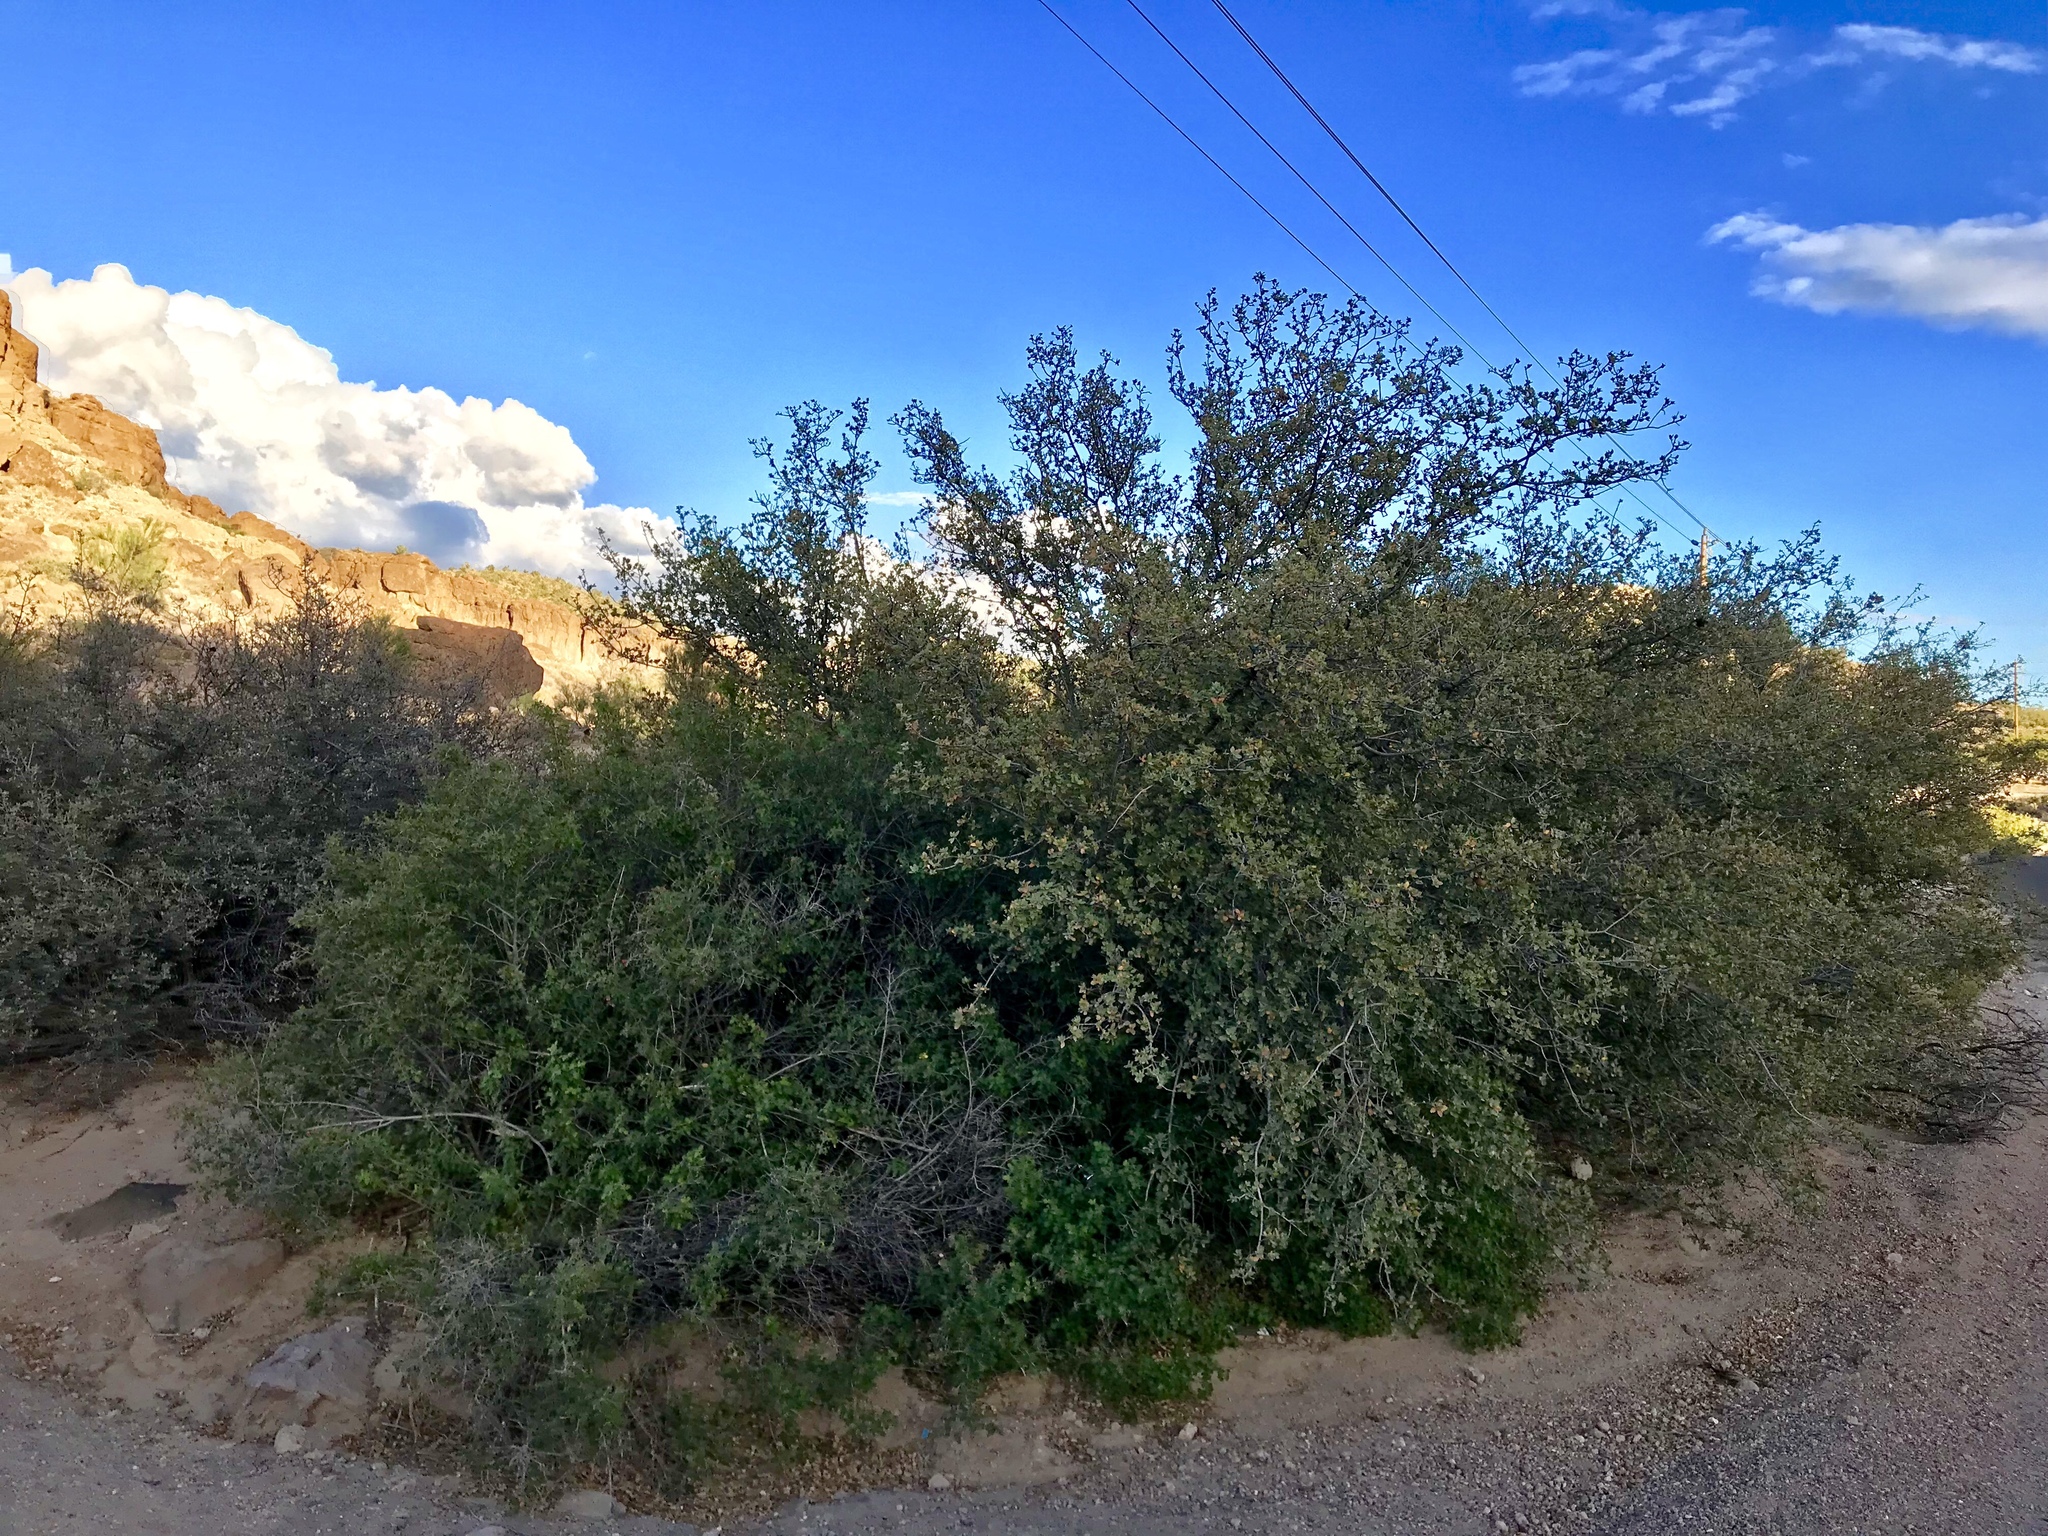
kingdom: Plantae
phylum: Tracheophyta
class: Magnoliopsida
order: Fagales
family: Fagaceae
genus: Quercus
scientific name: Quercus turbinella
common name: Sonoran scrub oak
